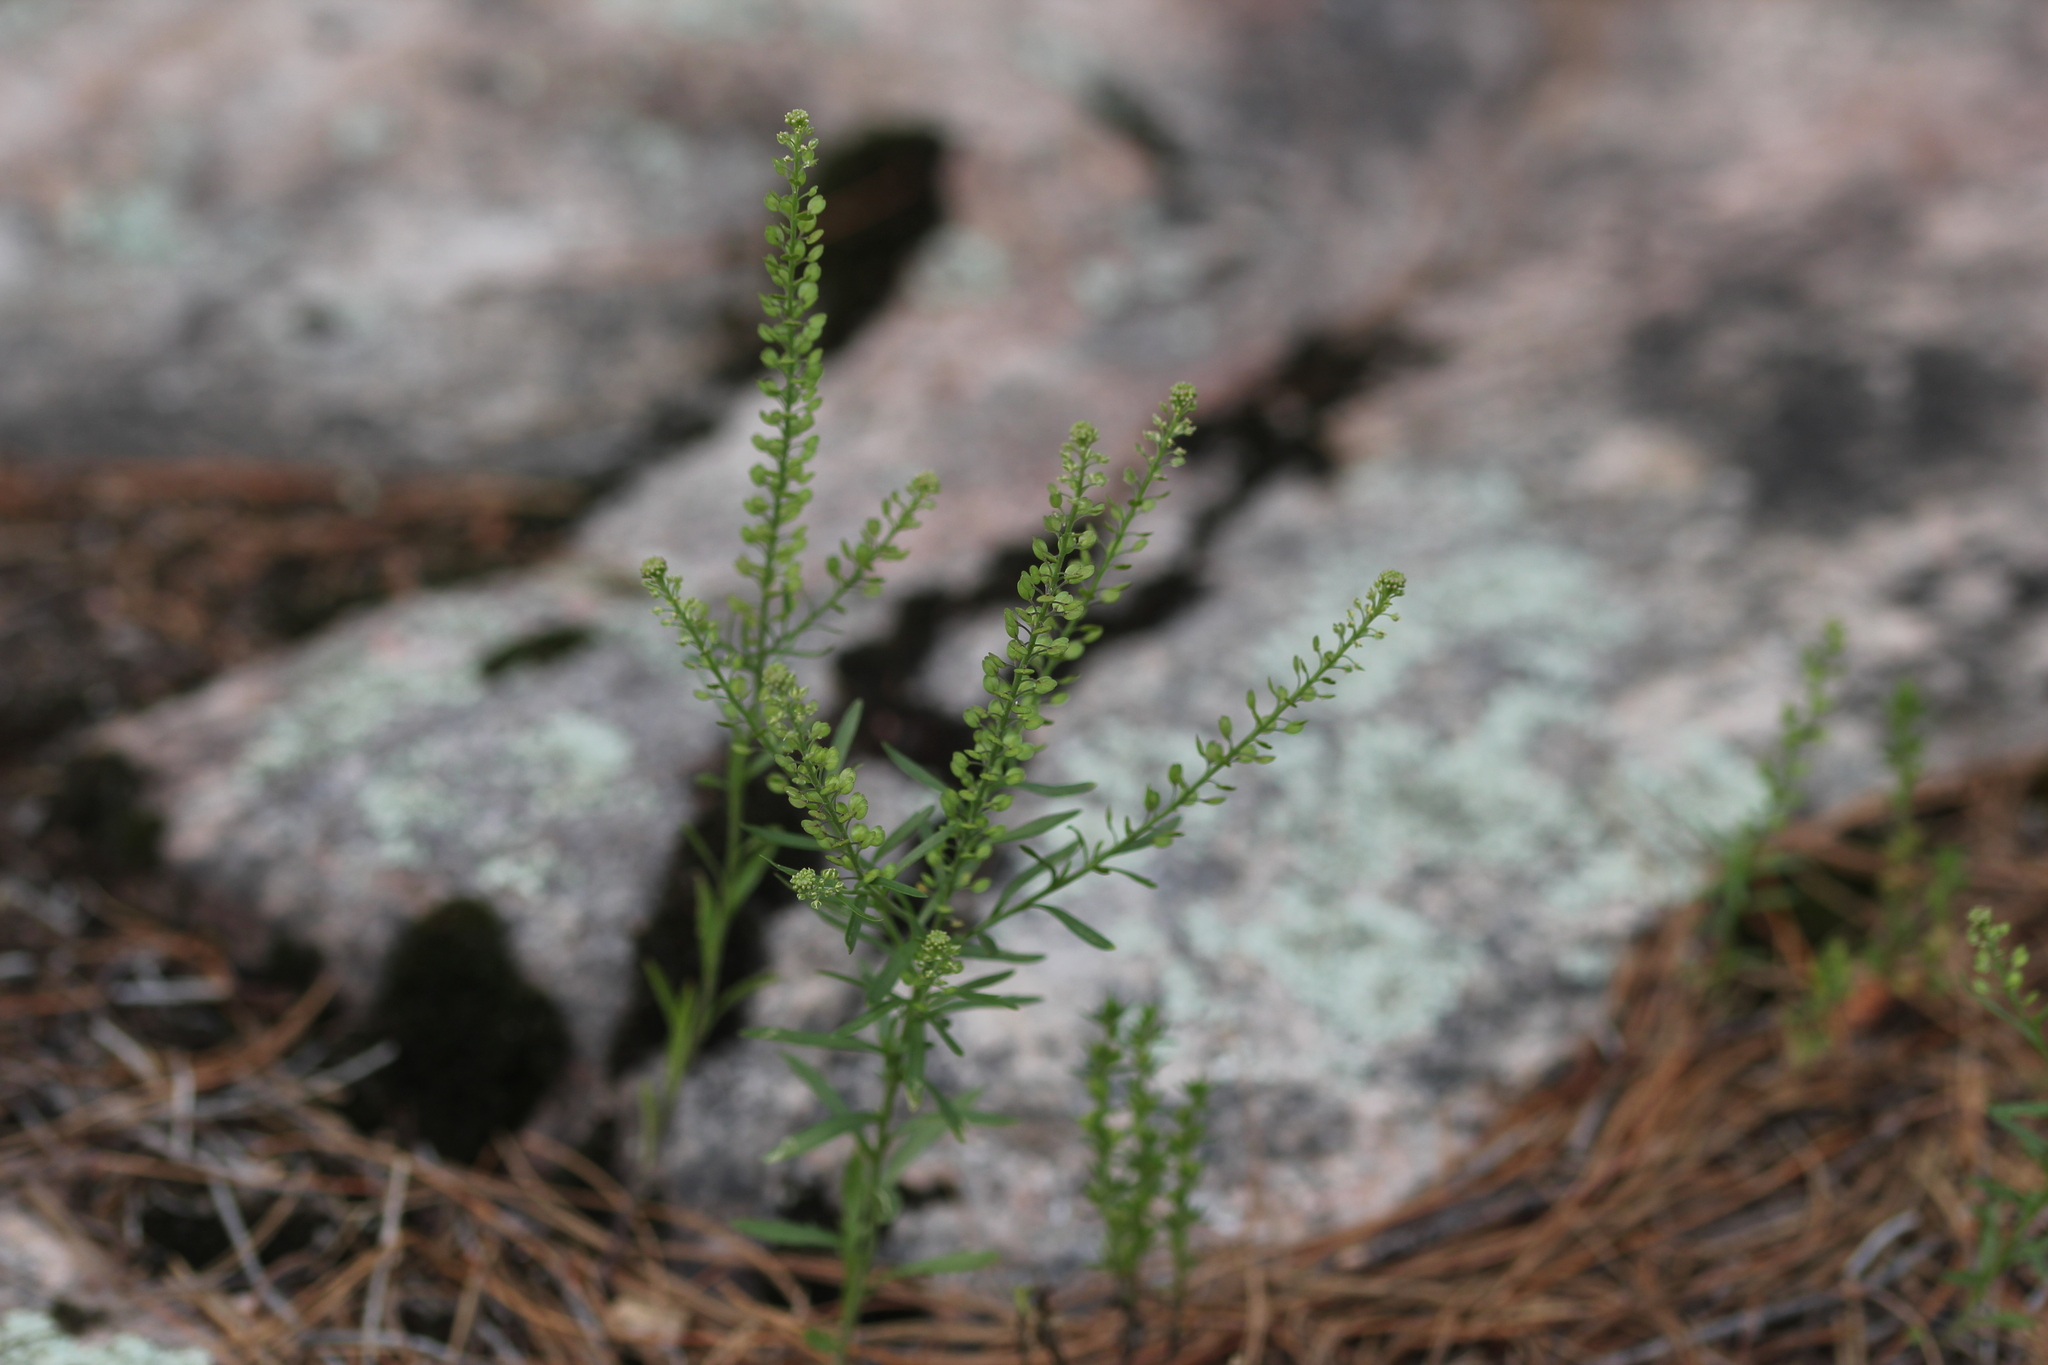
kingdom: Plantae
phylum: Tracheophyta
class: Magnoliopsida
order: Brassicales
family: Brassicaceae
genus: Lepidium
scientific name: Lepidium densiflorum
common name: Miner's pepperwort
